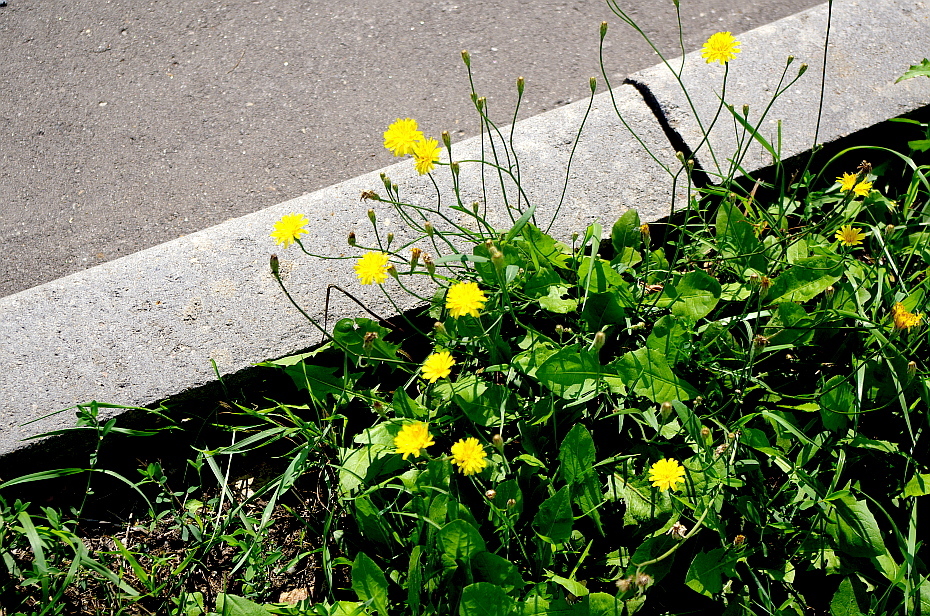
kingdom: Plantae
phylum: Tracheophyta
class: Magnoliopsida
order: Asterales
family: Asteraceae
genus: Scorzoneroides
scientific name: Scorzoneroides autumnalis
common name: Autumn hawkbit
